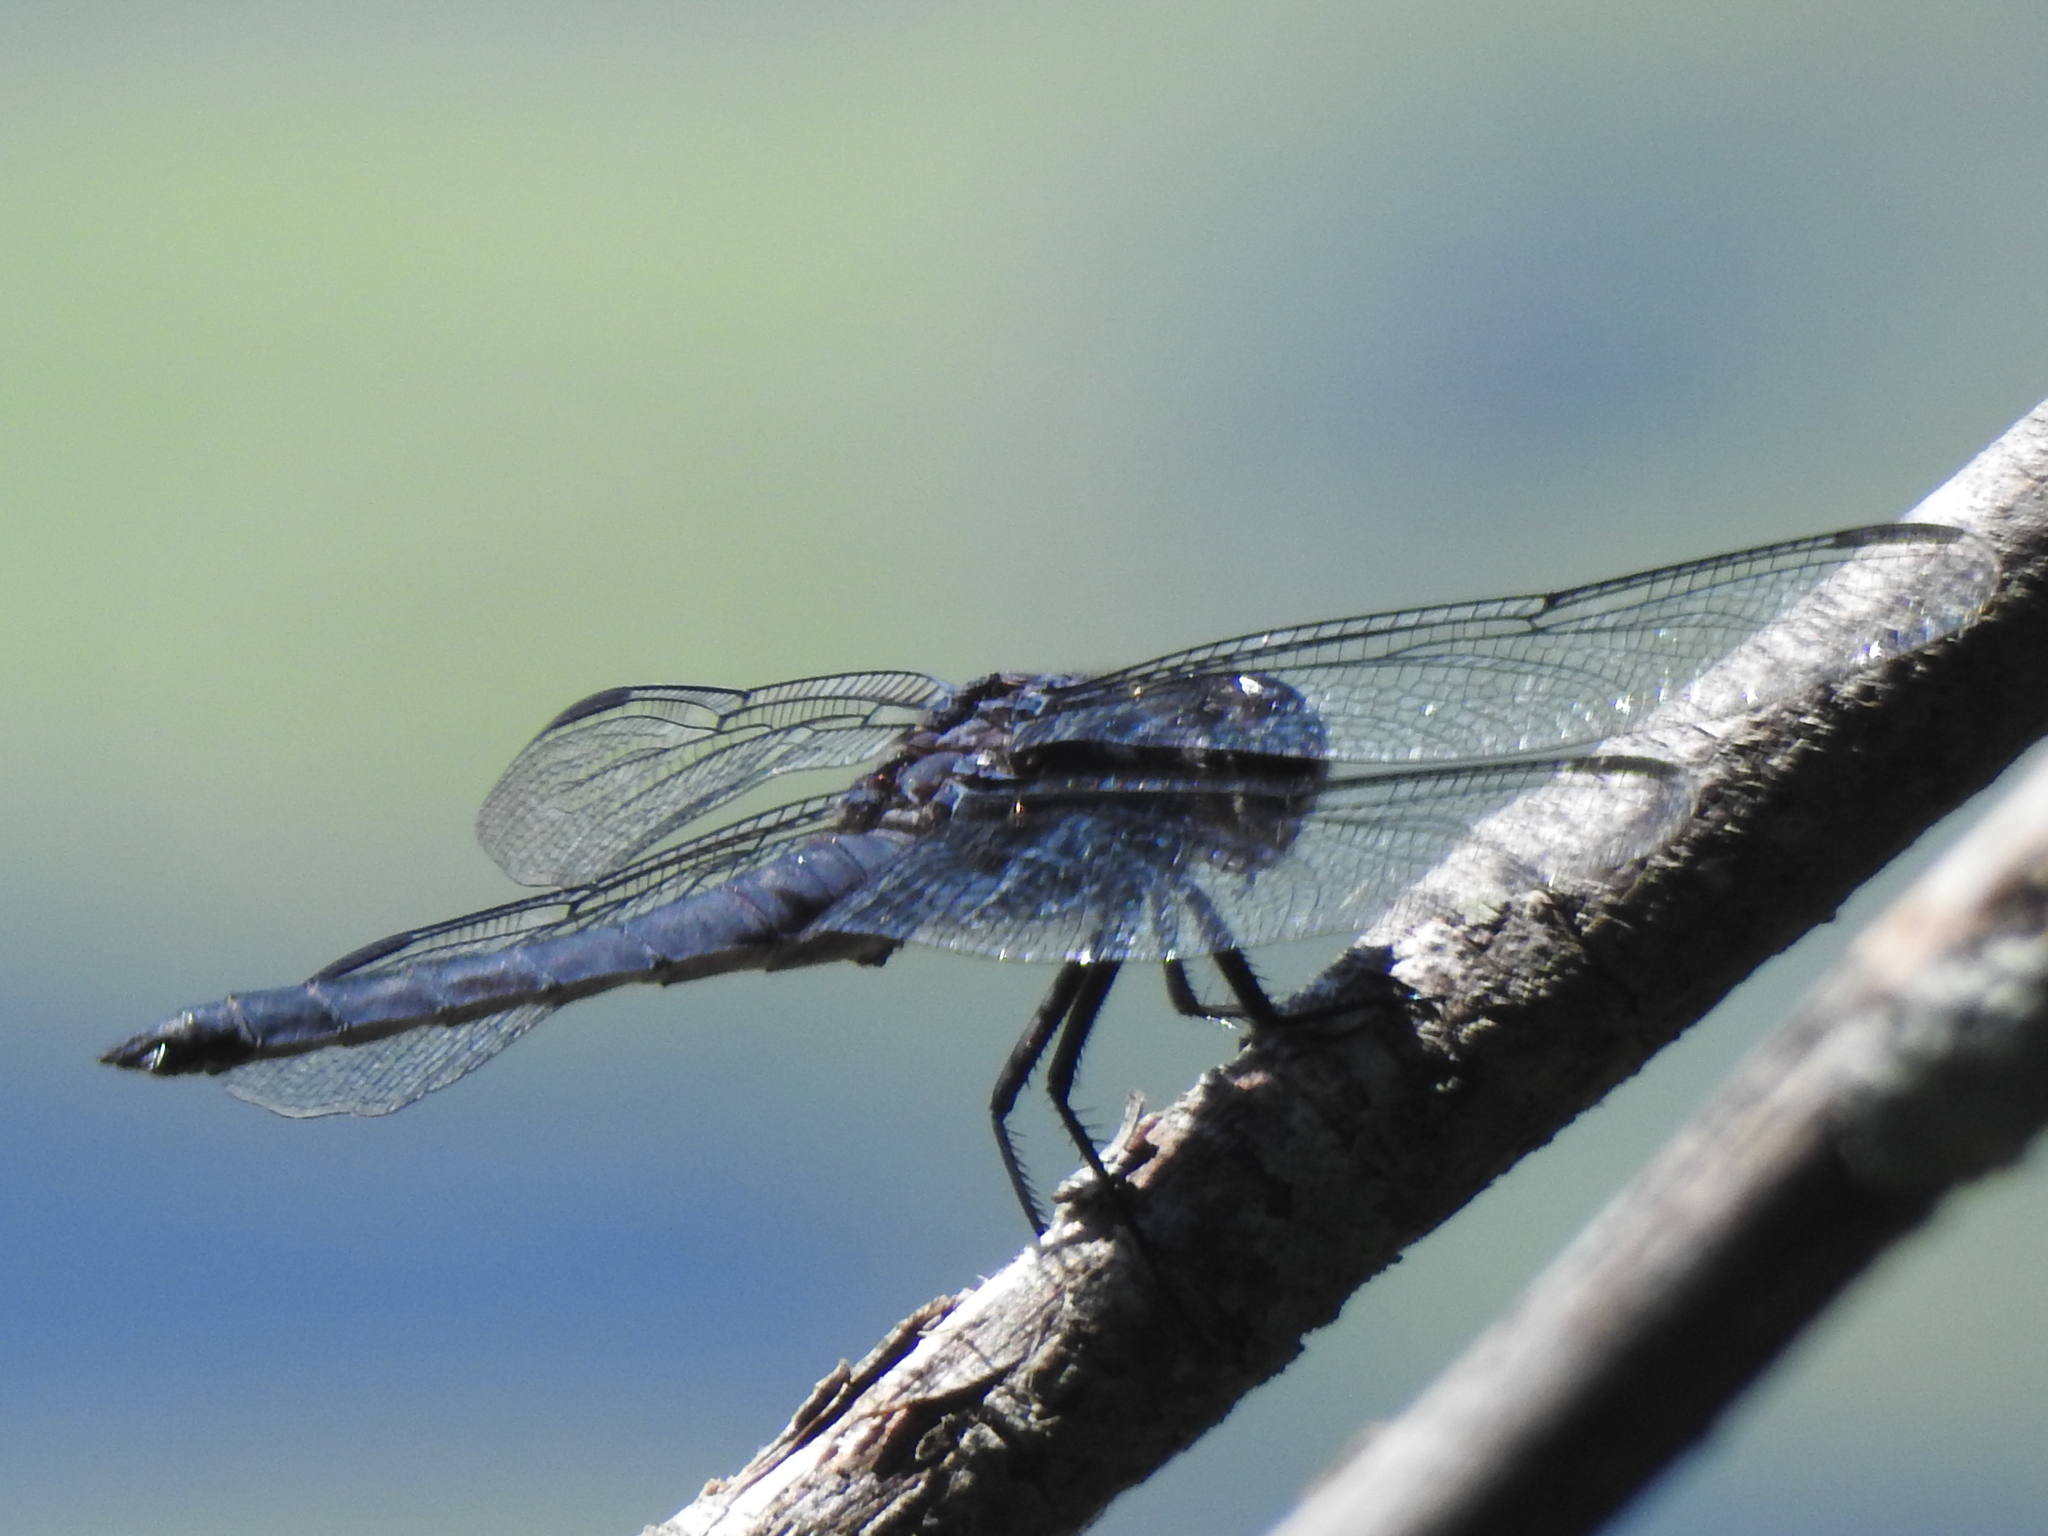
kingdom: Animalia
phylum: Arthropoda
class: Insecta
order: Odonata
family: Libellulidae
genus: Libellula
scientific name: Libellula incesta
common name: Slaty skimmer
